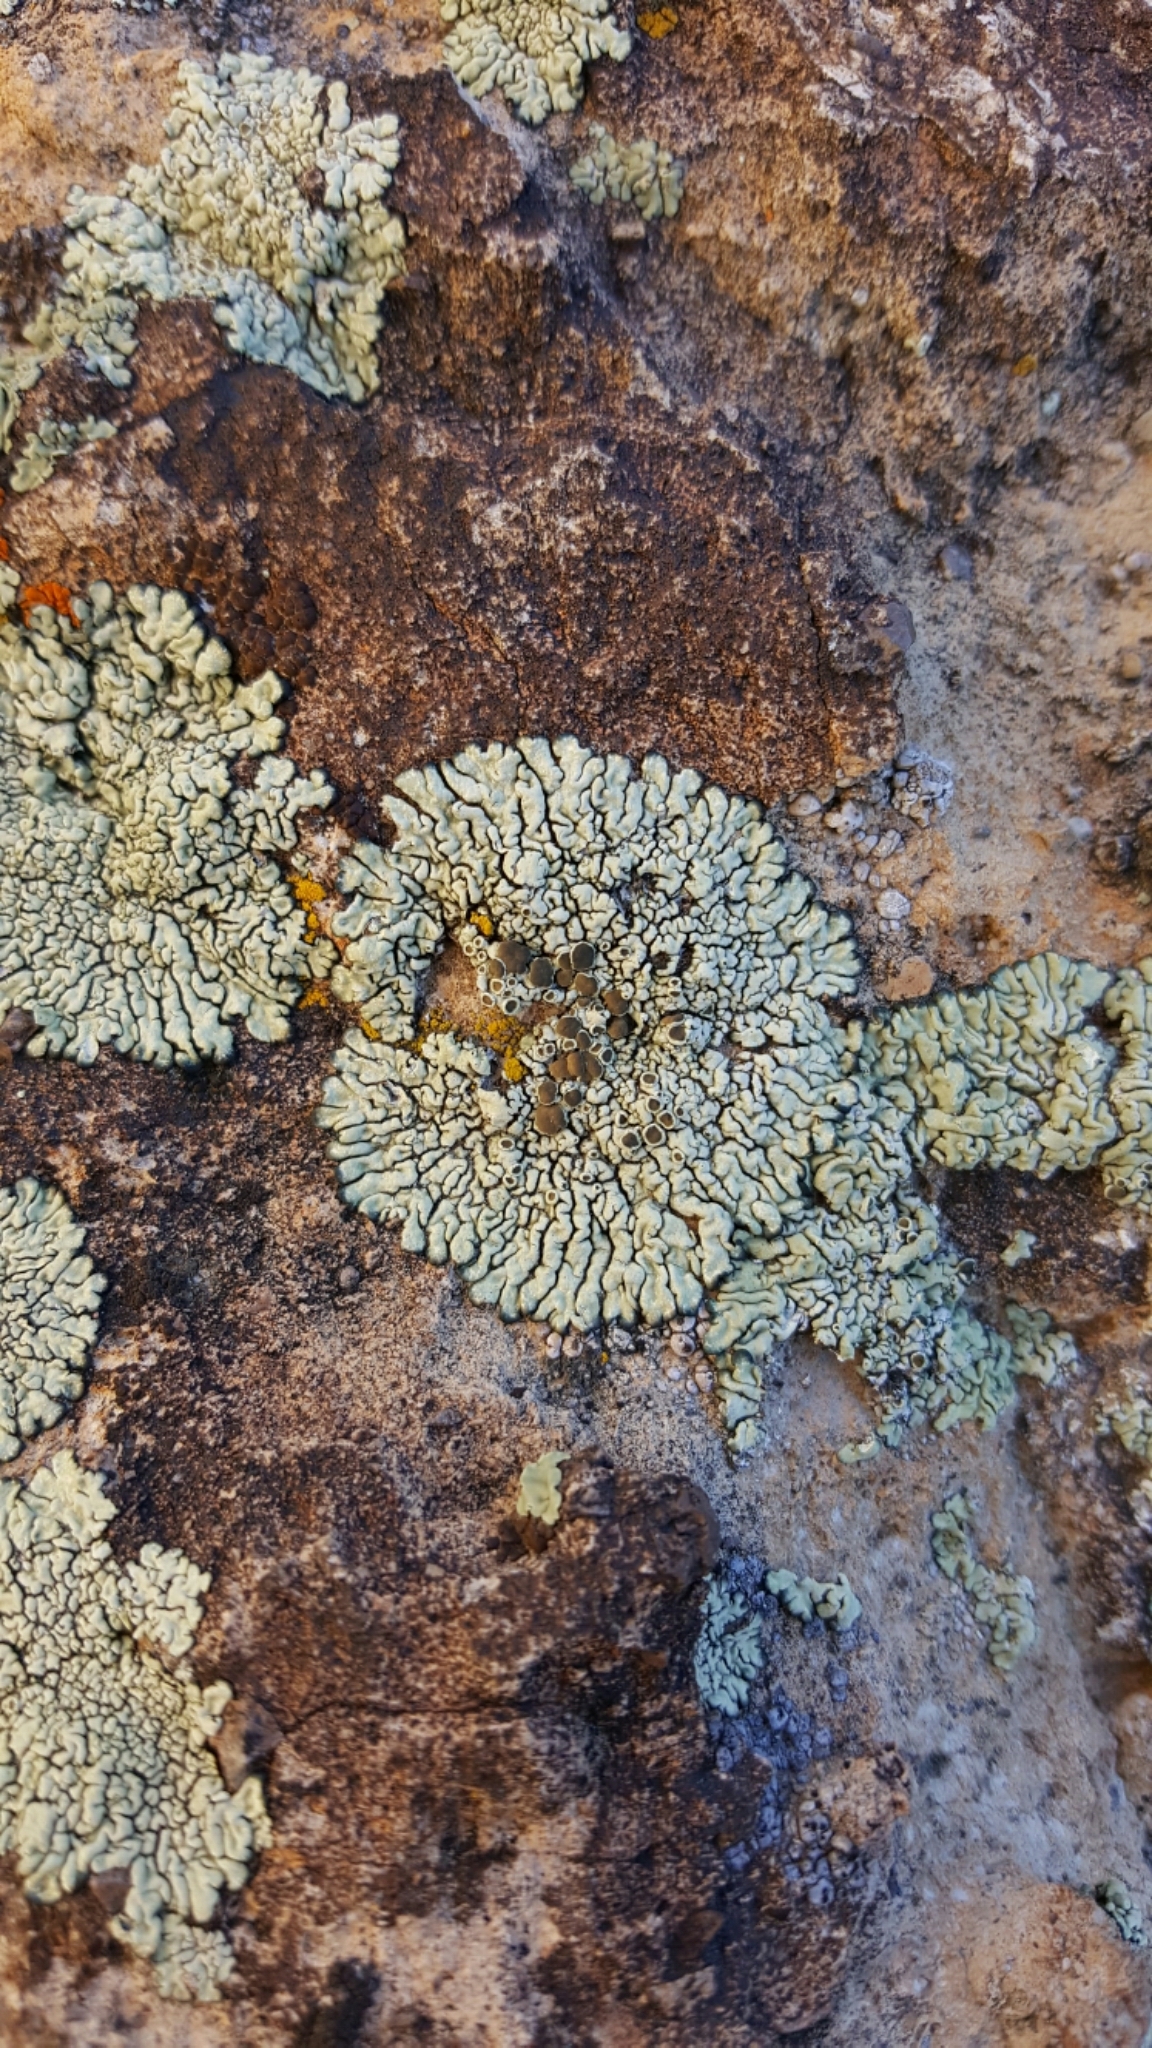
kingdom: Fungi
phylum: Ascomycota
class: Lecanoromycetes
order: Lecanorales
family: Lecanoraceae
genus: Protoparmeliopsis
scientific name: Protoparmeliopsis muralis
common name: Stonewall rim lichen
